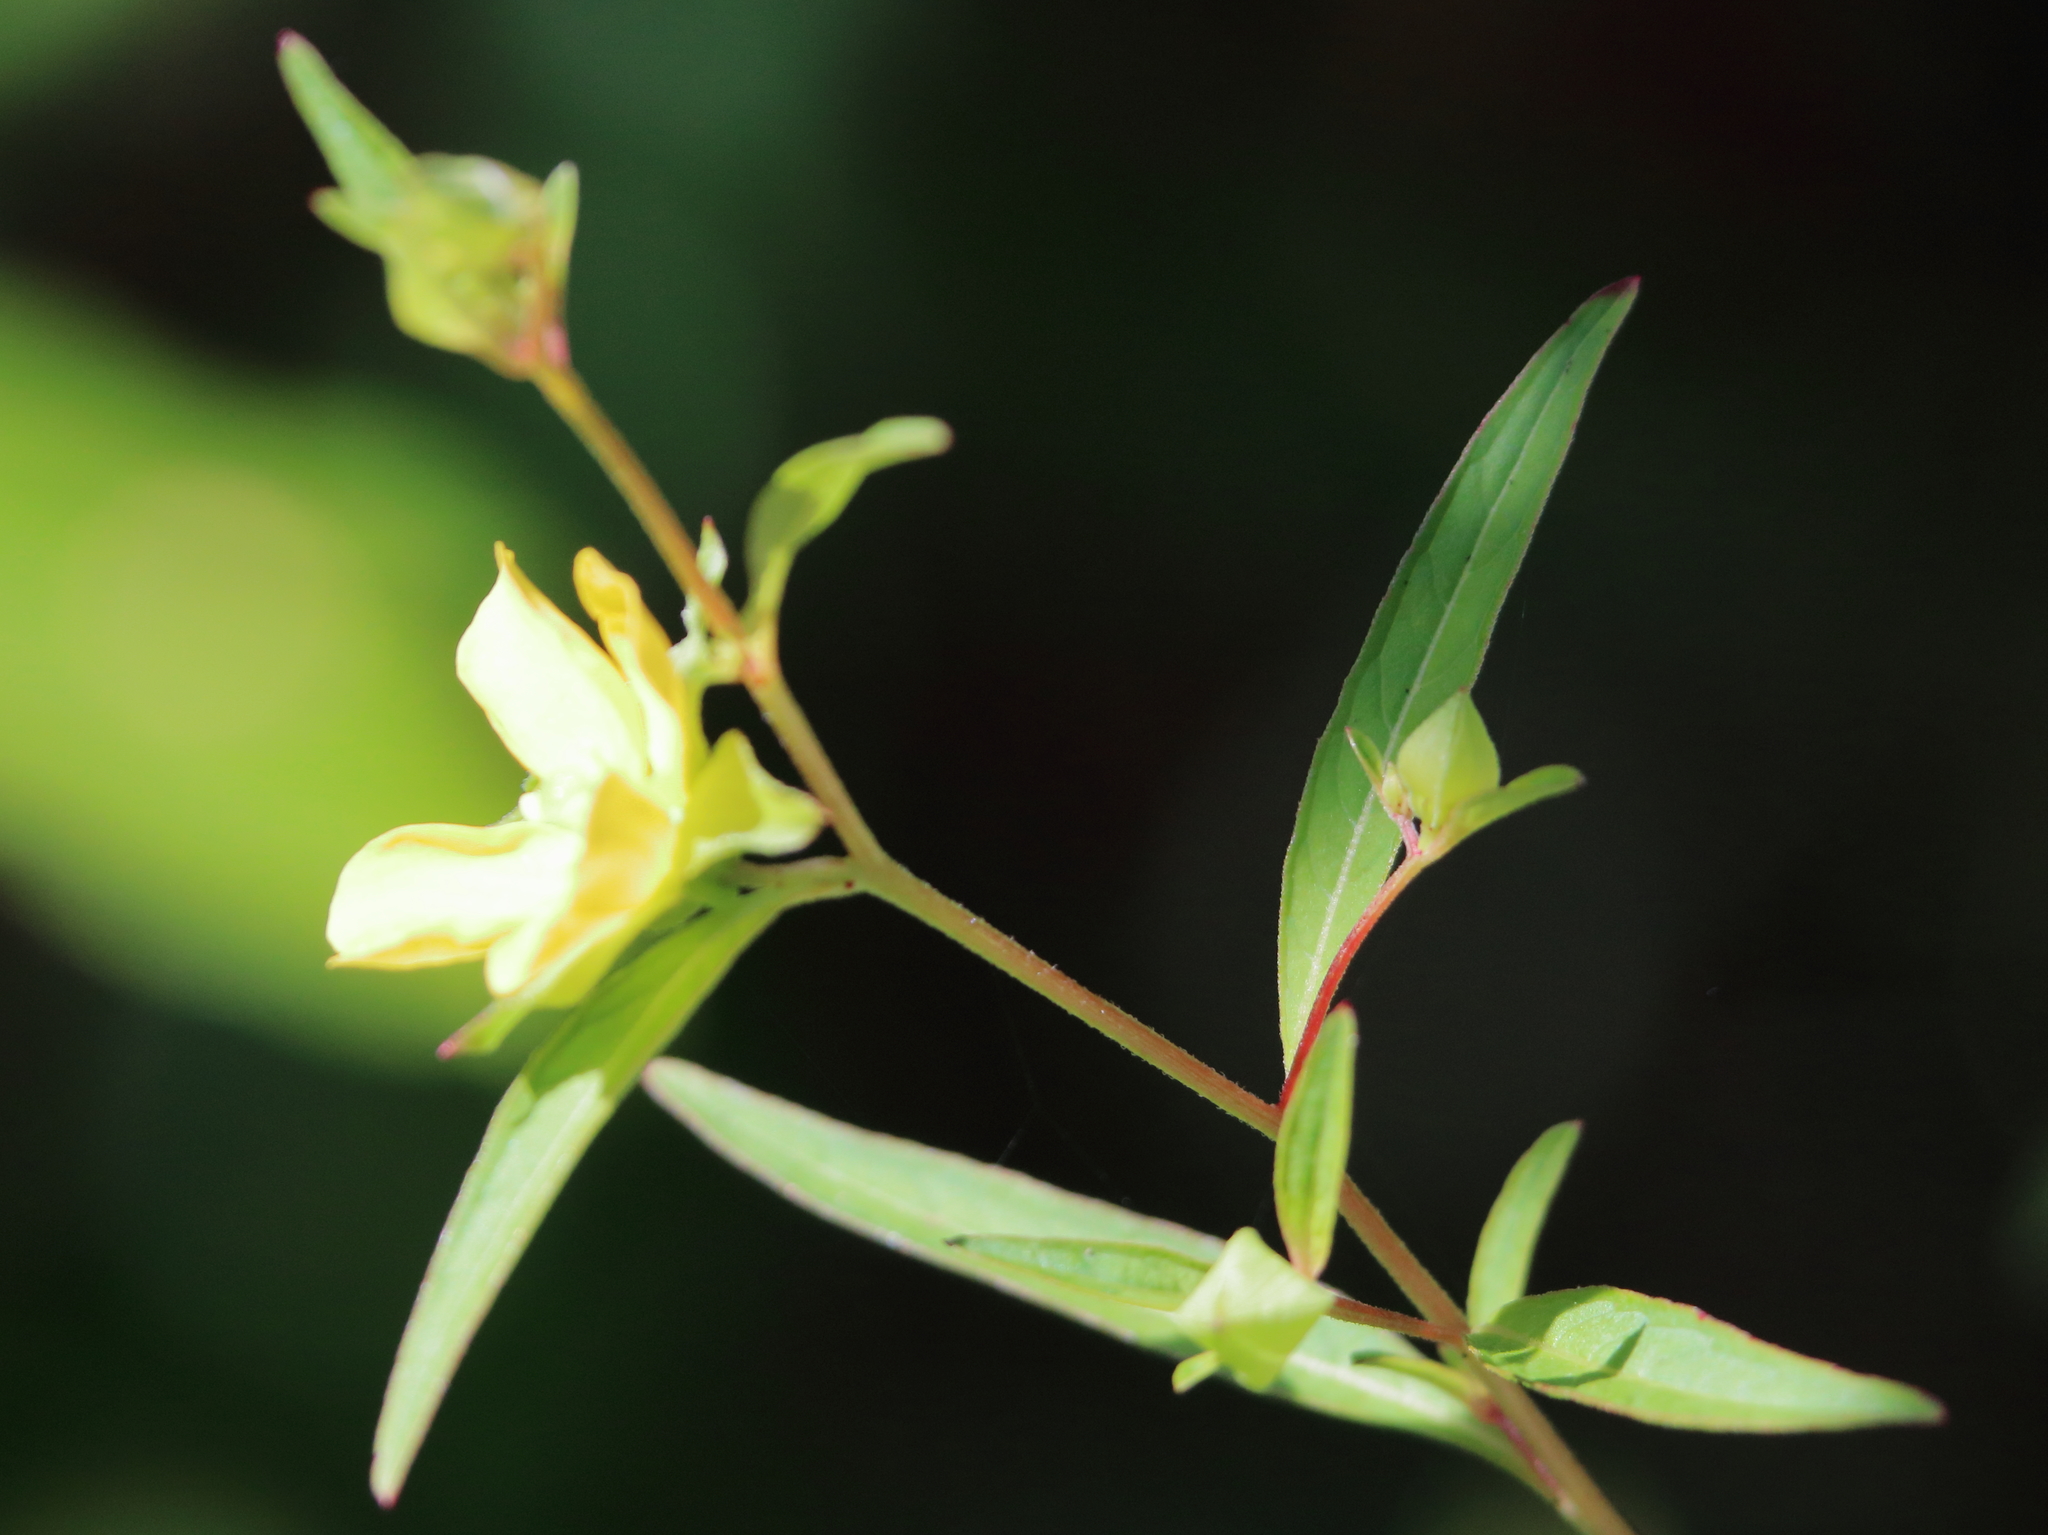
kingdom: Plantae
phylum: Tracheophyta
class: Magnoliopsida
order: Myrtales
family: Onagraceae
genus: Ludwigia
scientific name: Ludwigia alternifolia
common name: Rattlebox
